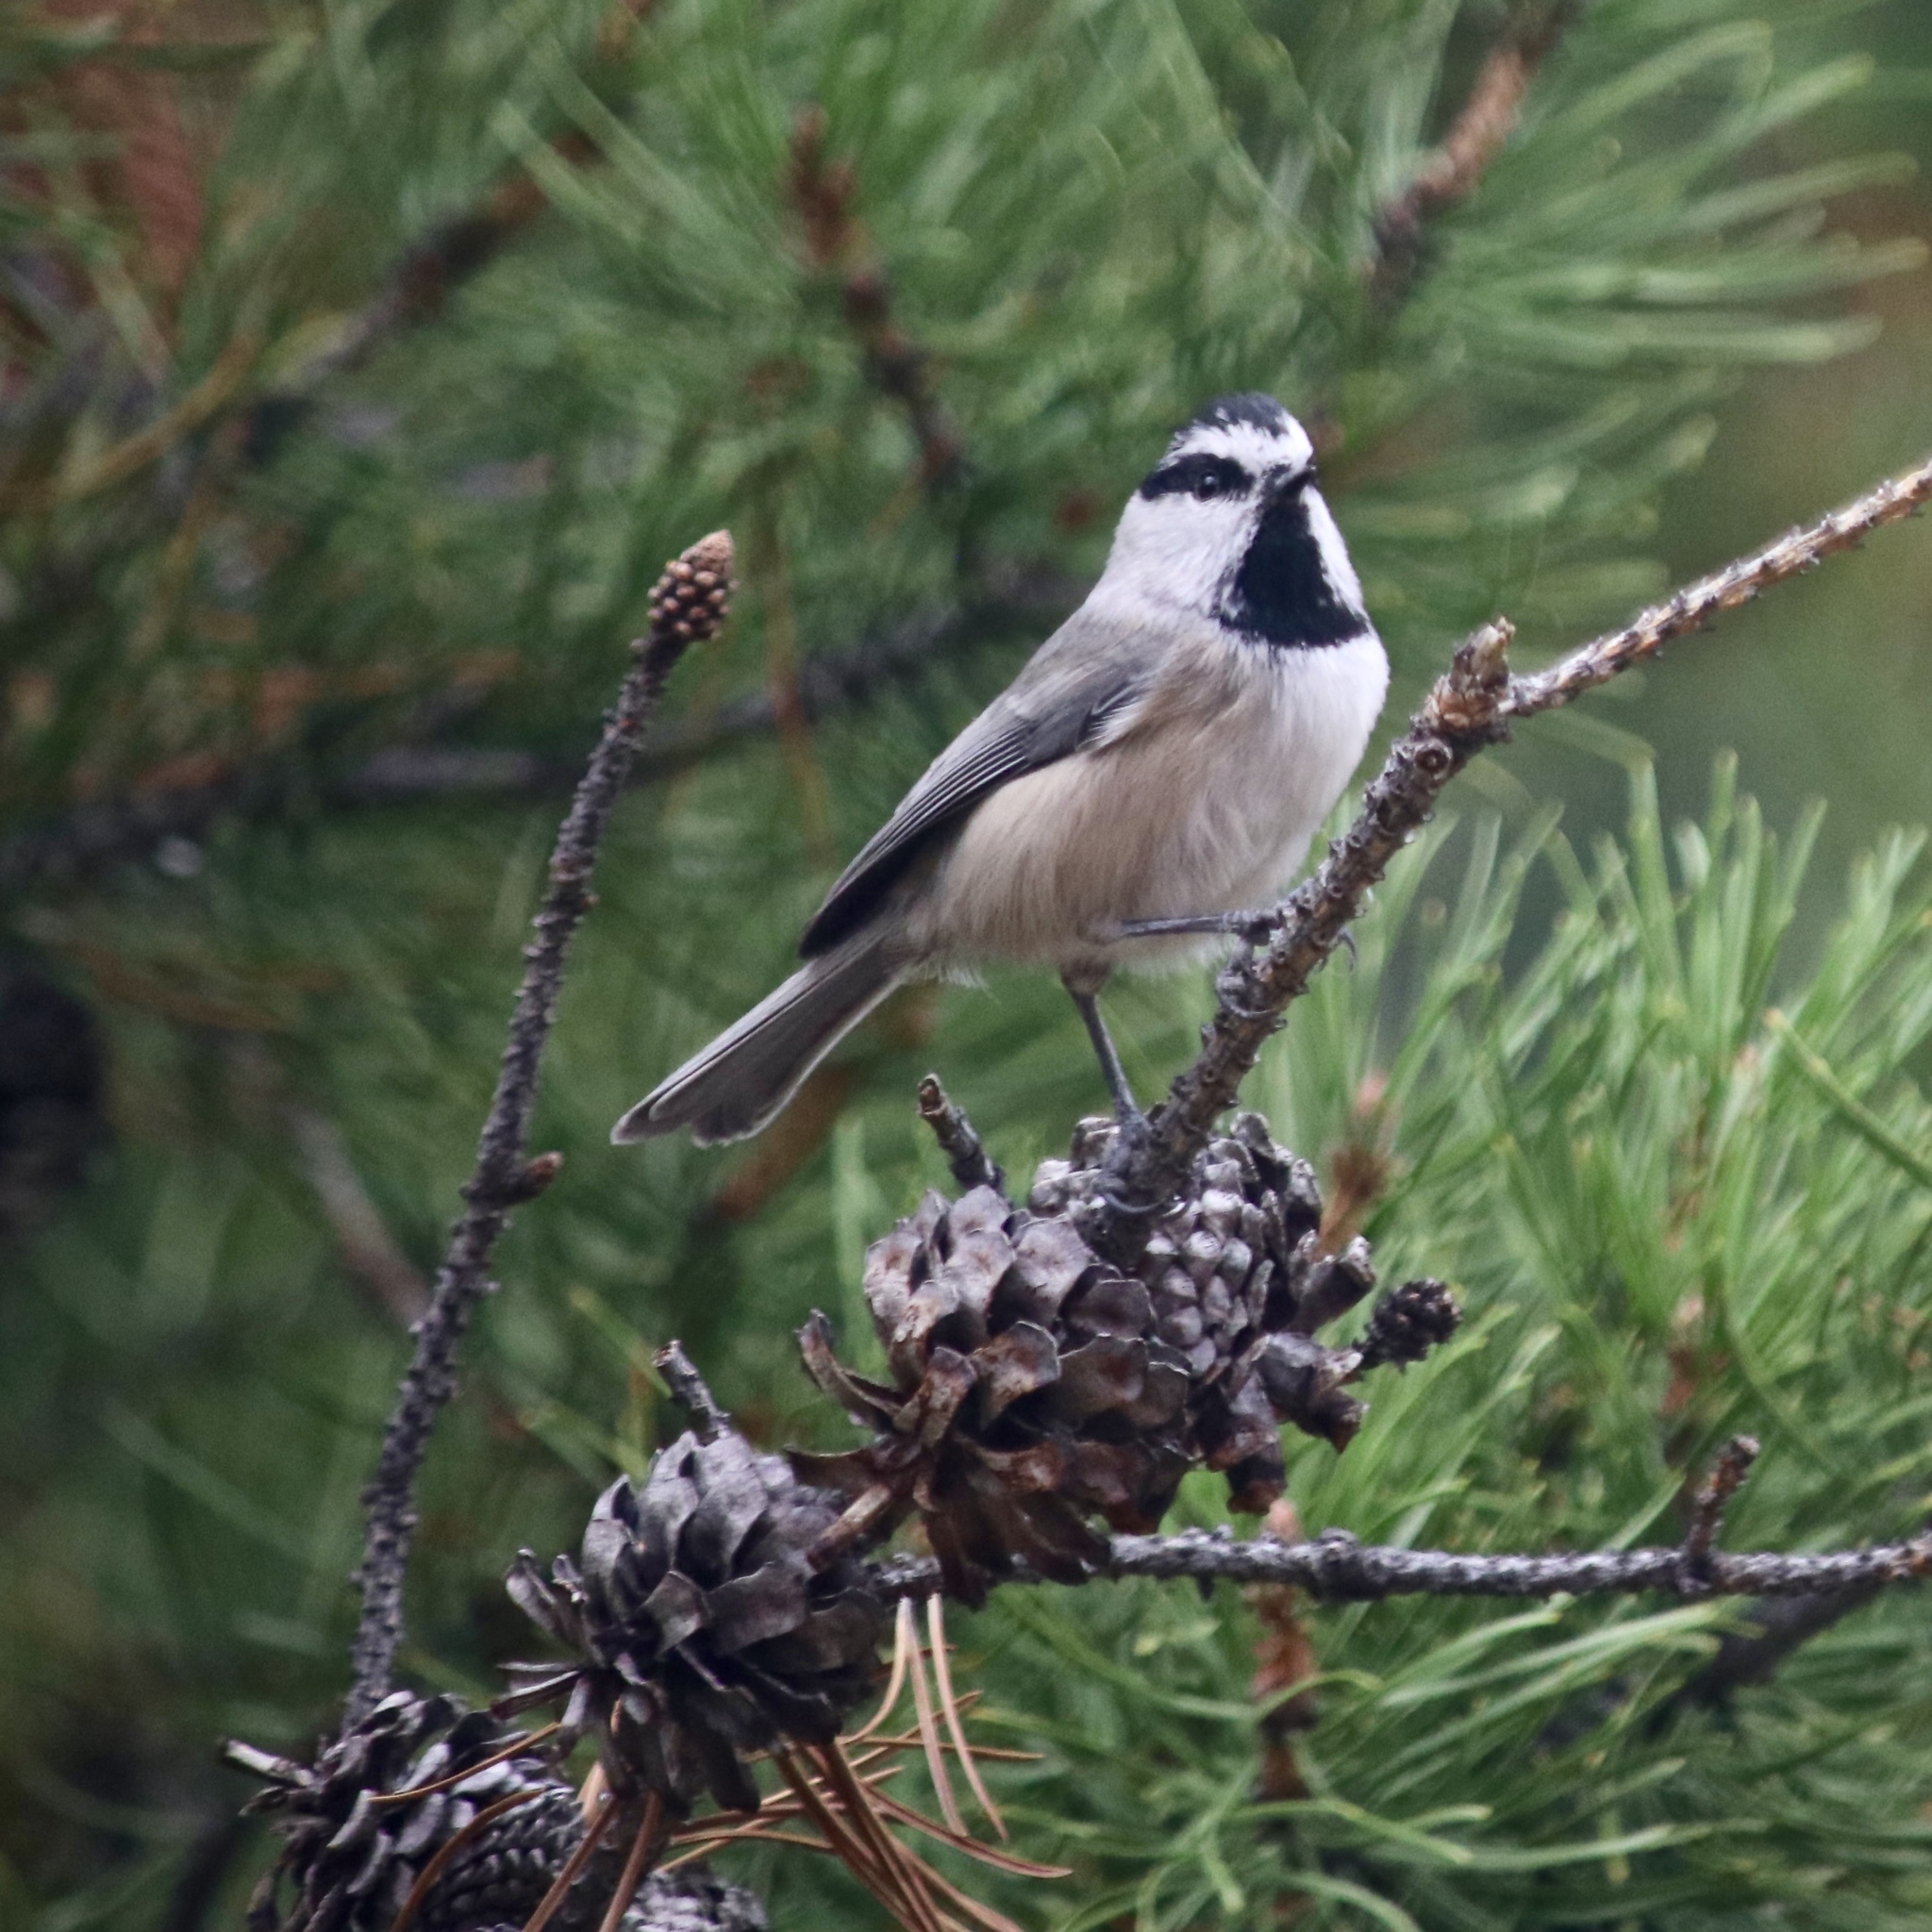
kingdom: Animalia
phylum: Chordata
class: Aves
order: Passeriformes
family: Paridae
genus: Poecile
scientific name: Poecile gambeli
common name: Mountain chickadee
